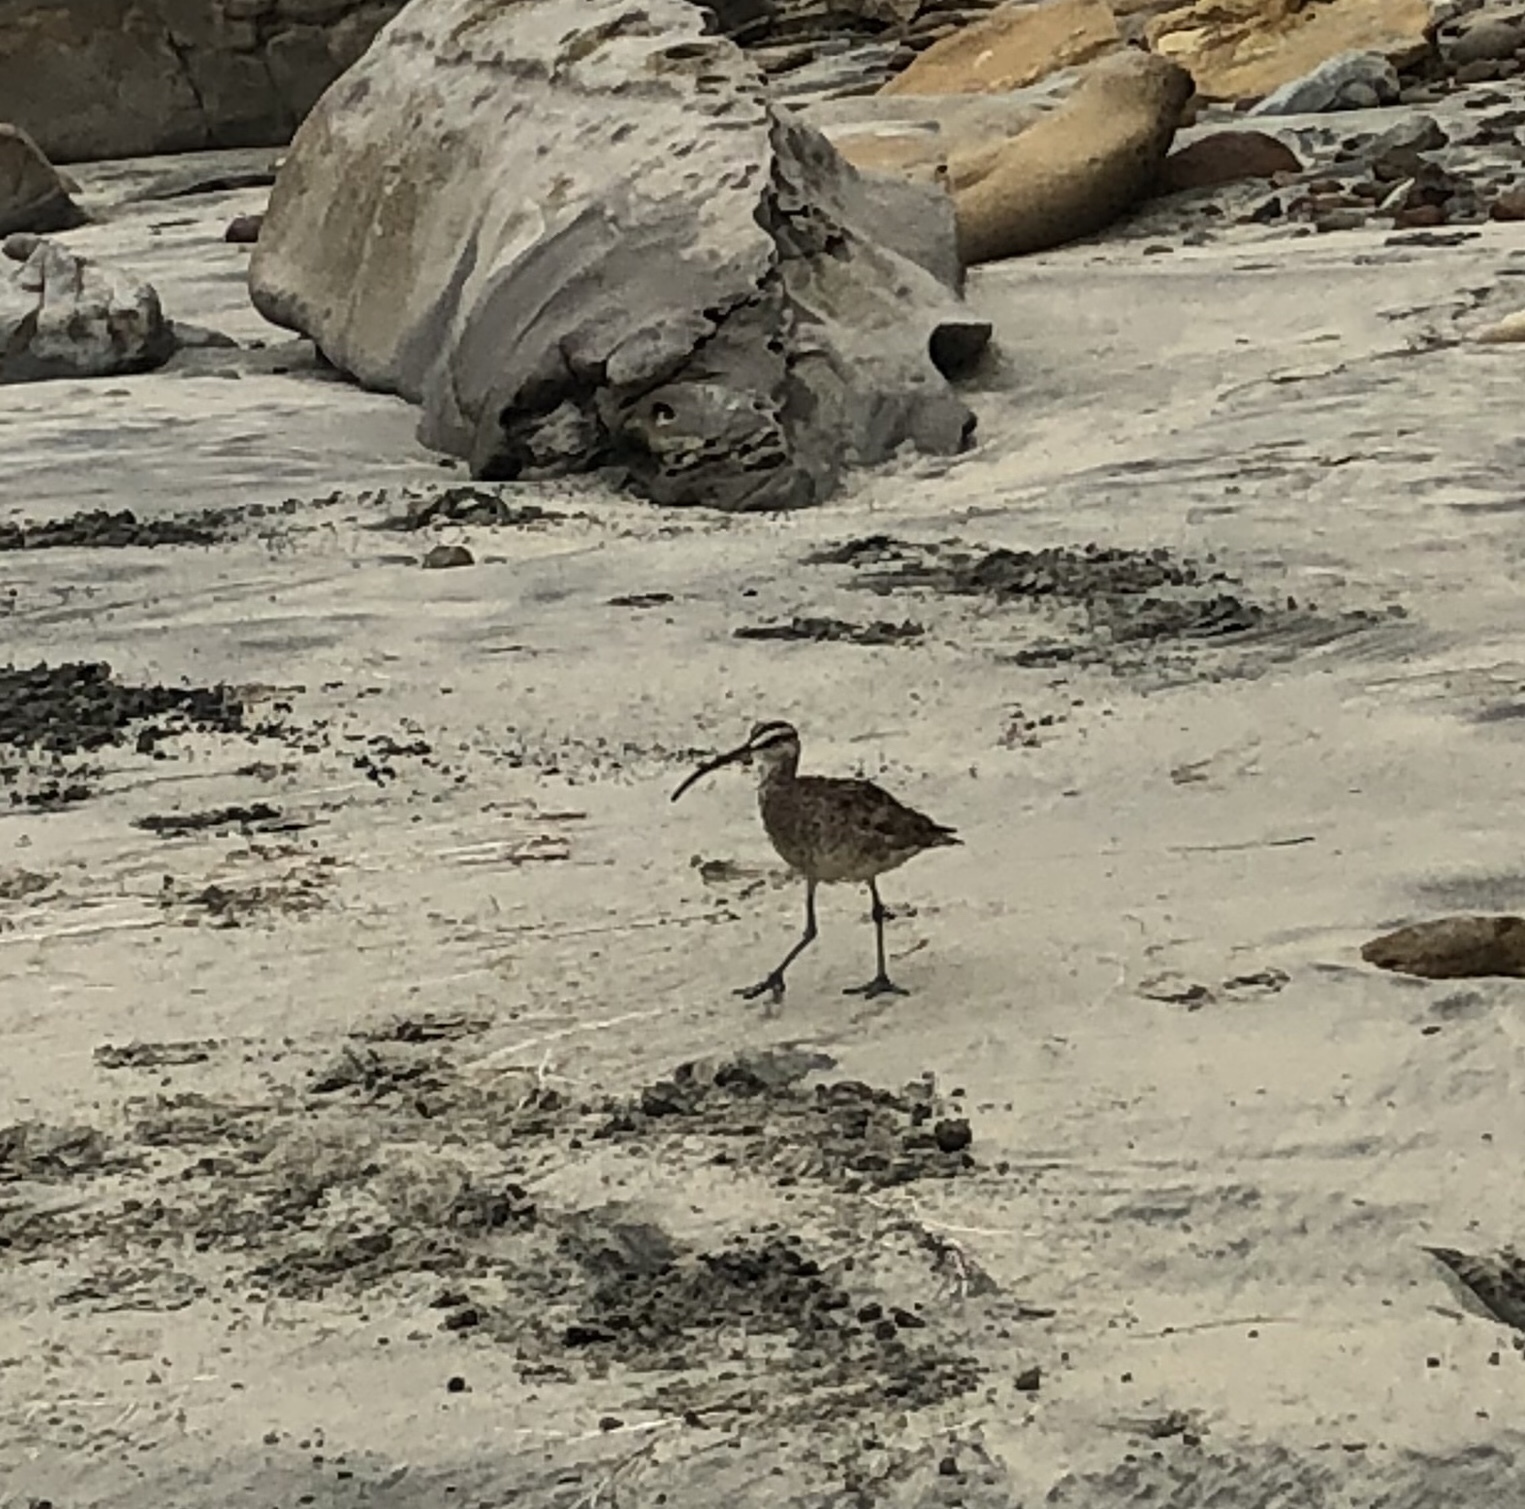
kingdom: Animalia
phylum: Chordata
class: Aves
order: Charadriiformes
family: Scolopacidae
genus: Numenius
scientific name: Numenius phaeopus
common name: Whimbrel
